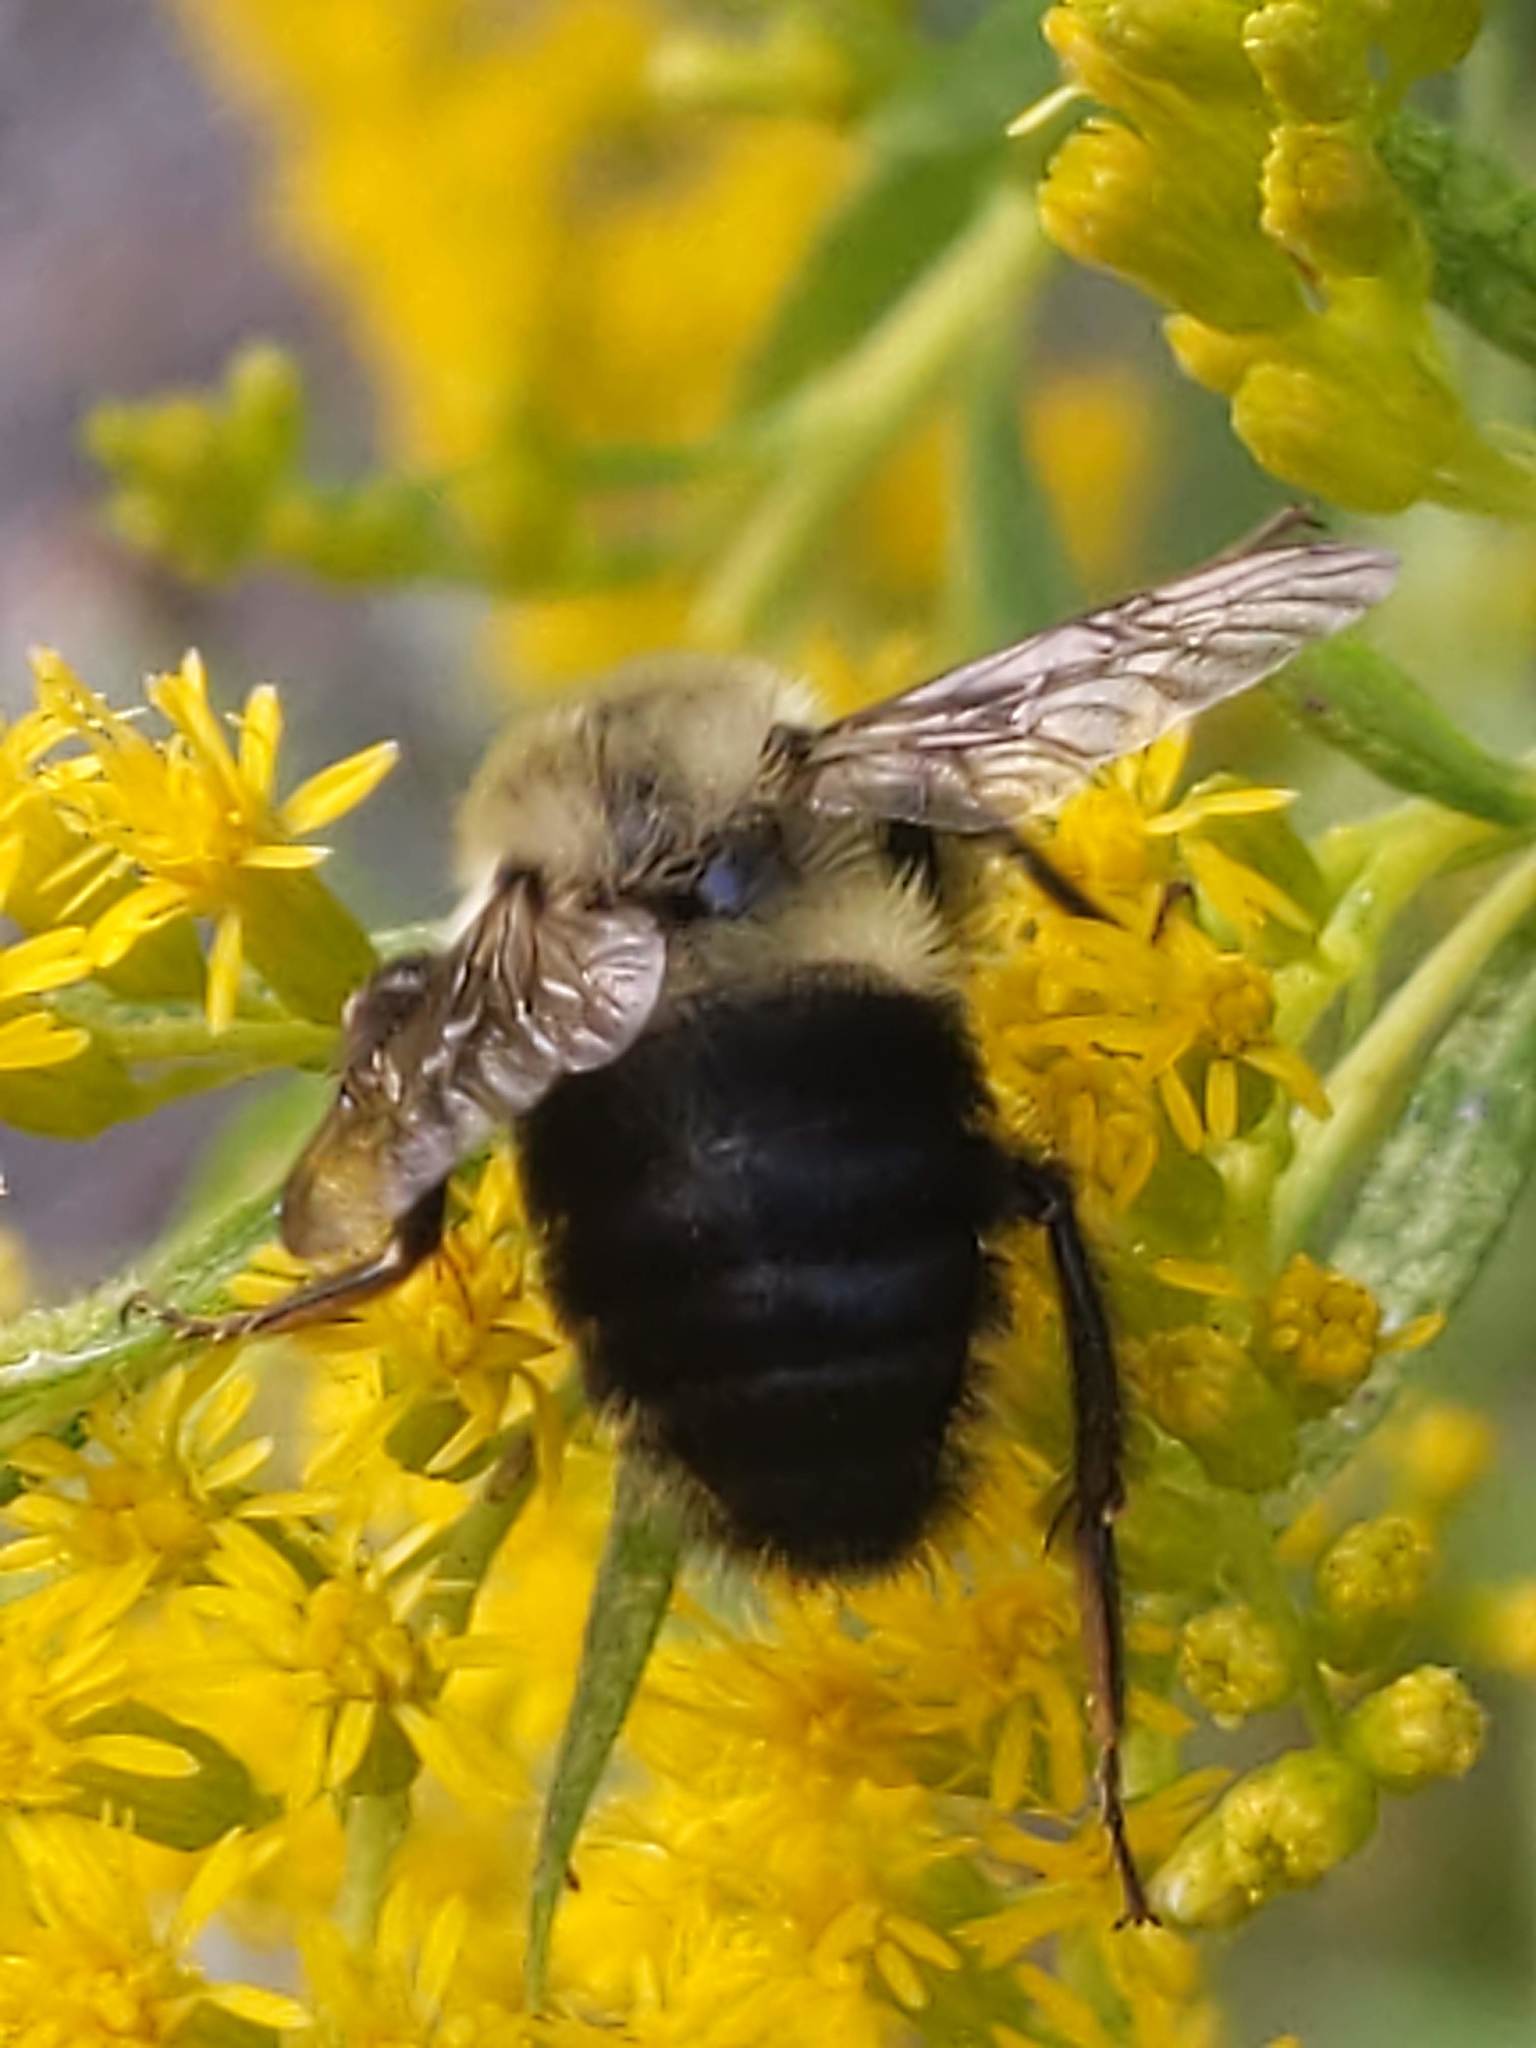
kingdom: Animalia
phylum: Arthropoda
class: Insecta
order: Hymenoptera
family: Apidae
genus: Bombus
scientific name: Bombus impatiens
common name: Common eastern bumble bee
